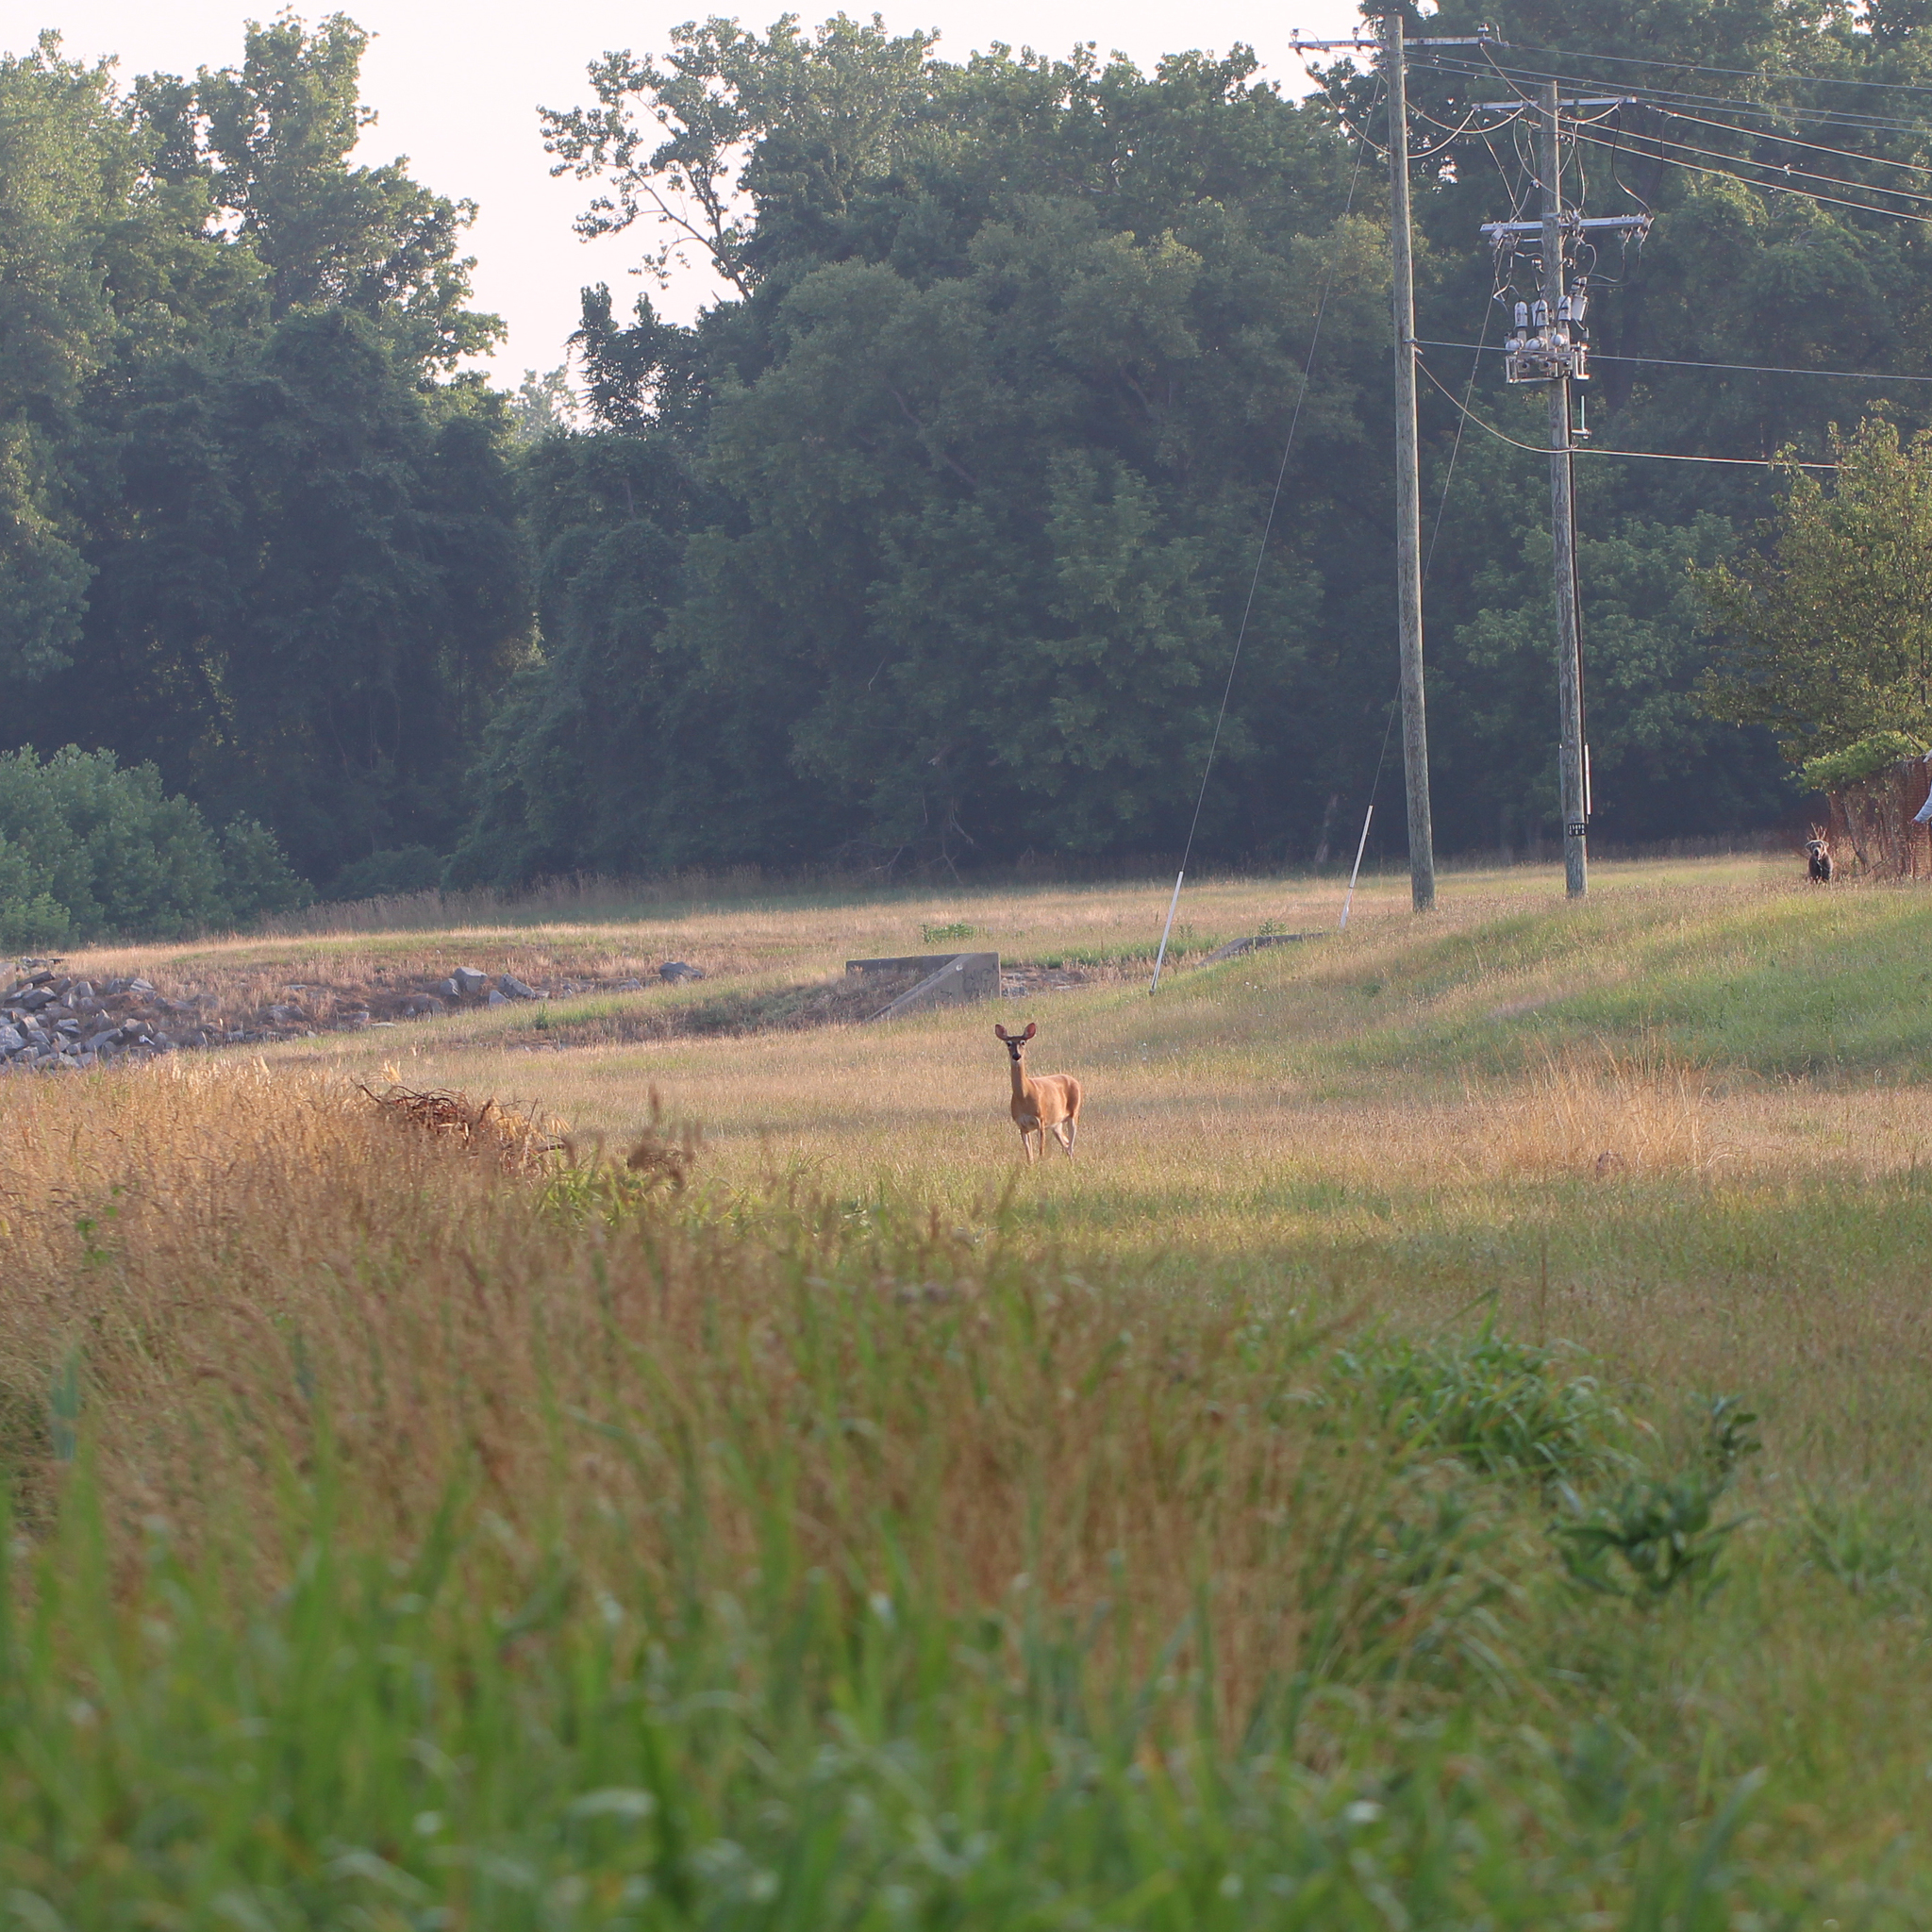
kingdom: Animalia
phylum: Chordata
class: Mammalia
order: Artiodactyla
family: Cervidae
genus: Odocoileus
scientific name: Odocoileus virginianus
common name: White-tailed deer
